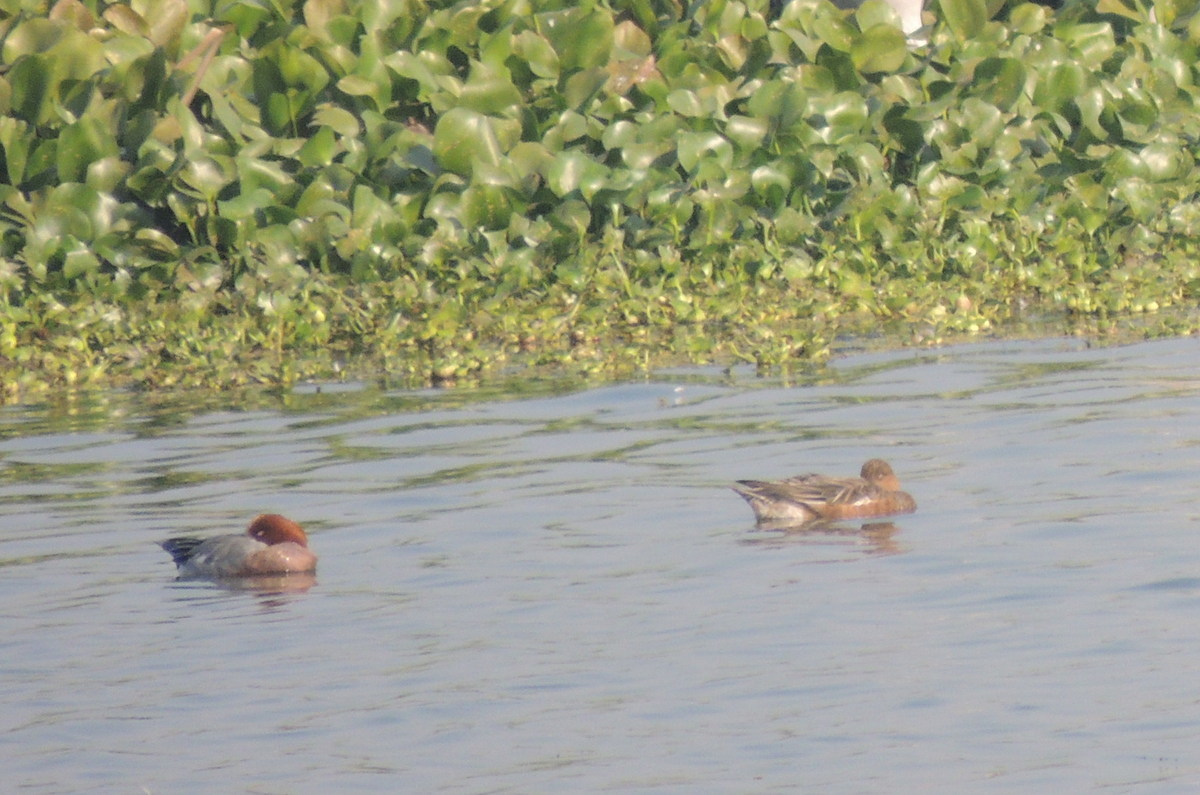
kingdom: Animalia
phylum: Chordata
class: Aves
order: Anseriformes
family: Anatidae
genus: Mareca
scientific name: Mareca penelope
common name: Eurasian wigeon
